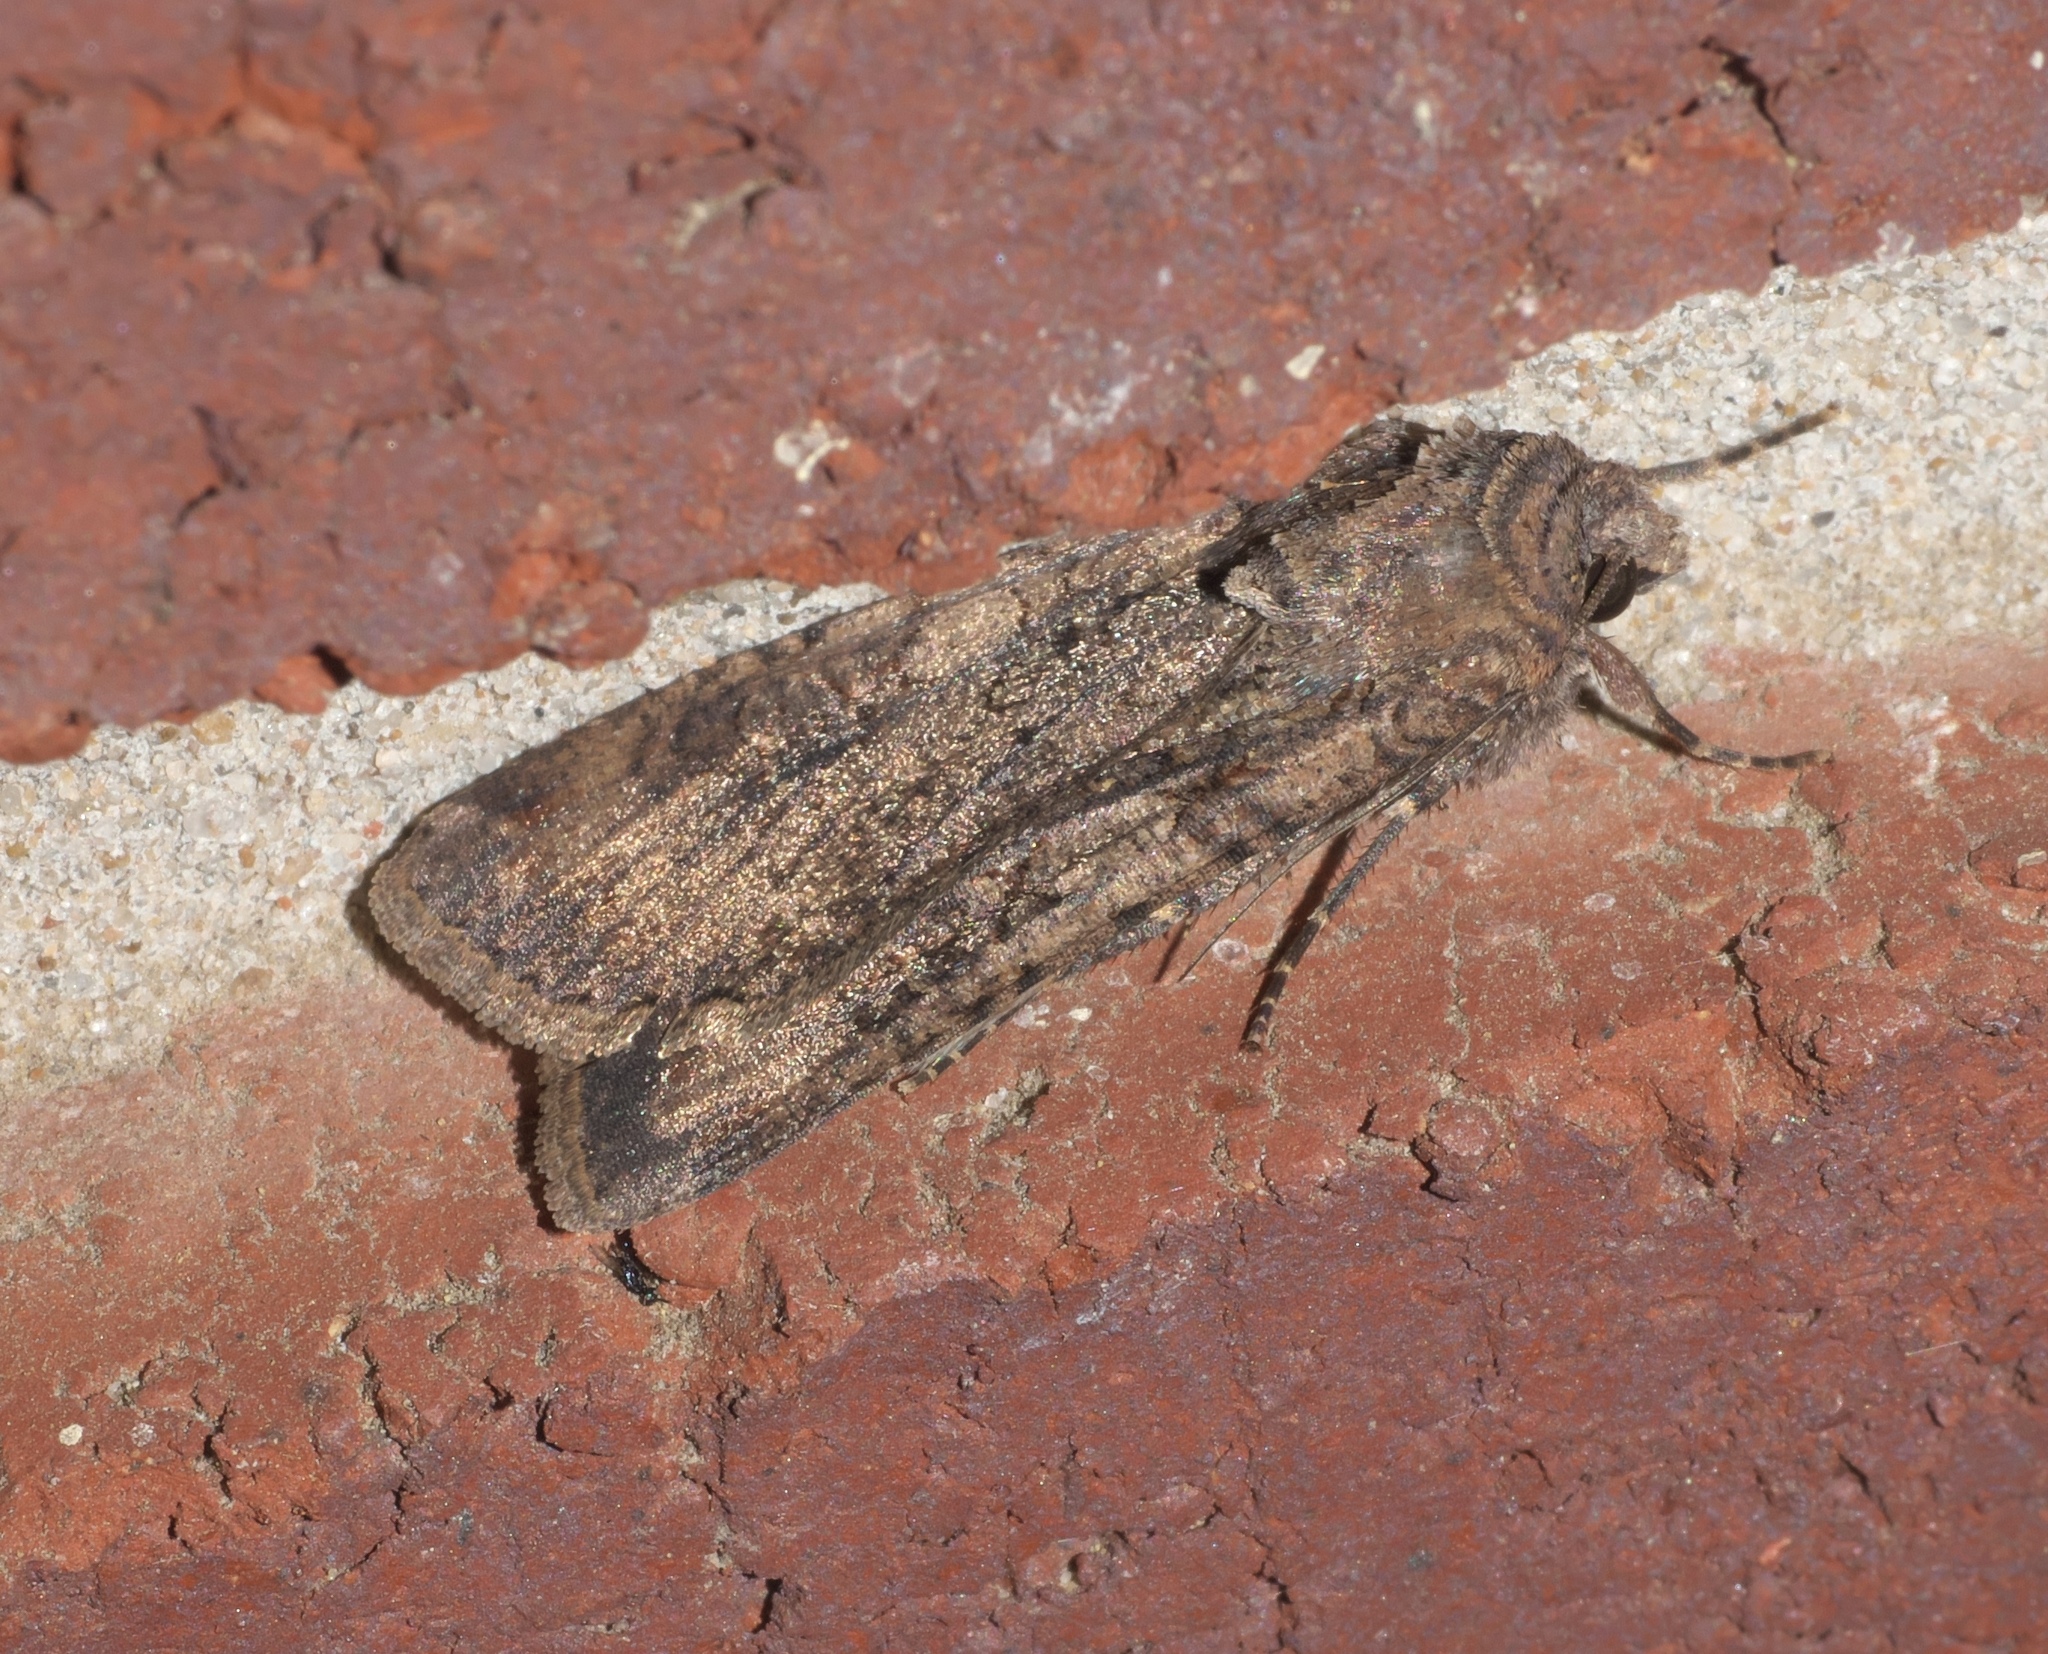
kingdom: Animalia
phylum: Arthropoda
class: Insecta
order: Lepidoptera
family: Geometridae
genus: Eulithis
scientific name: Eulithis
